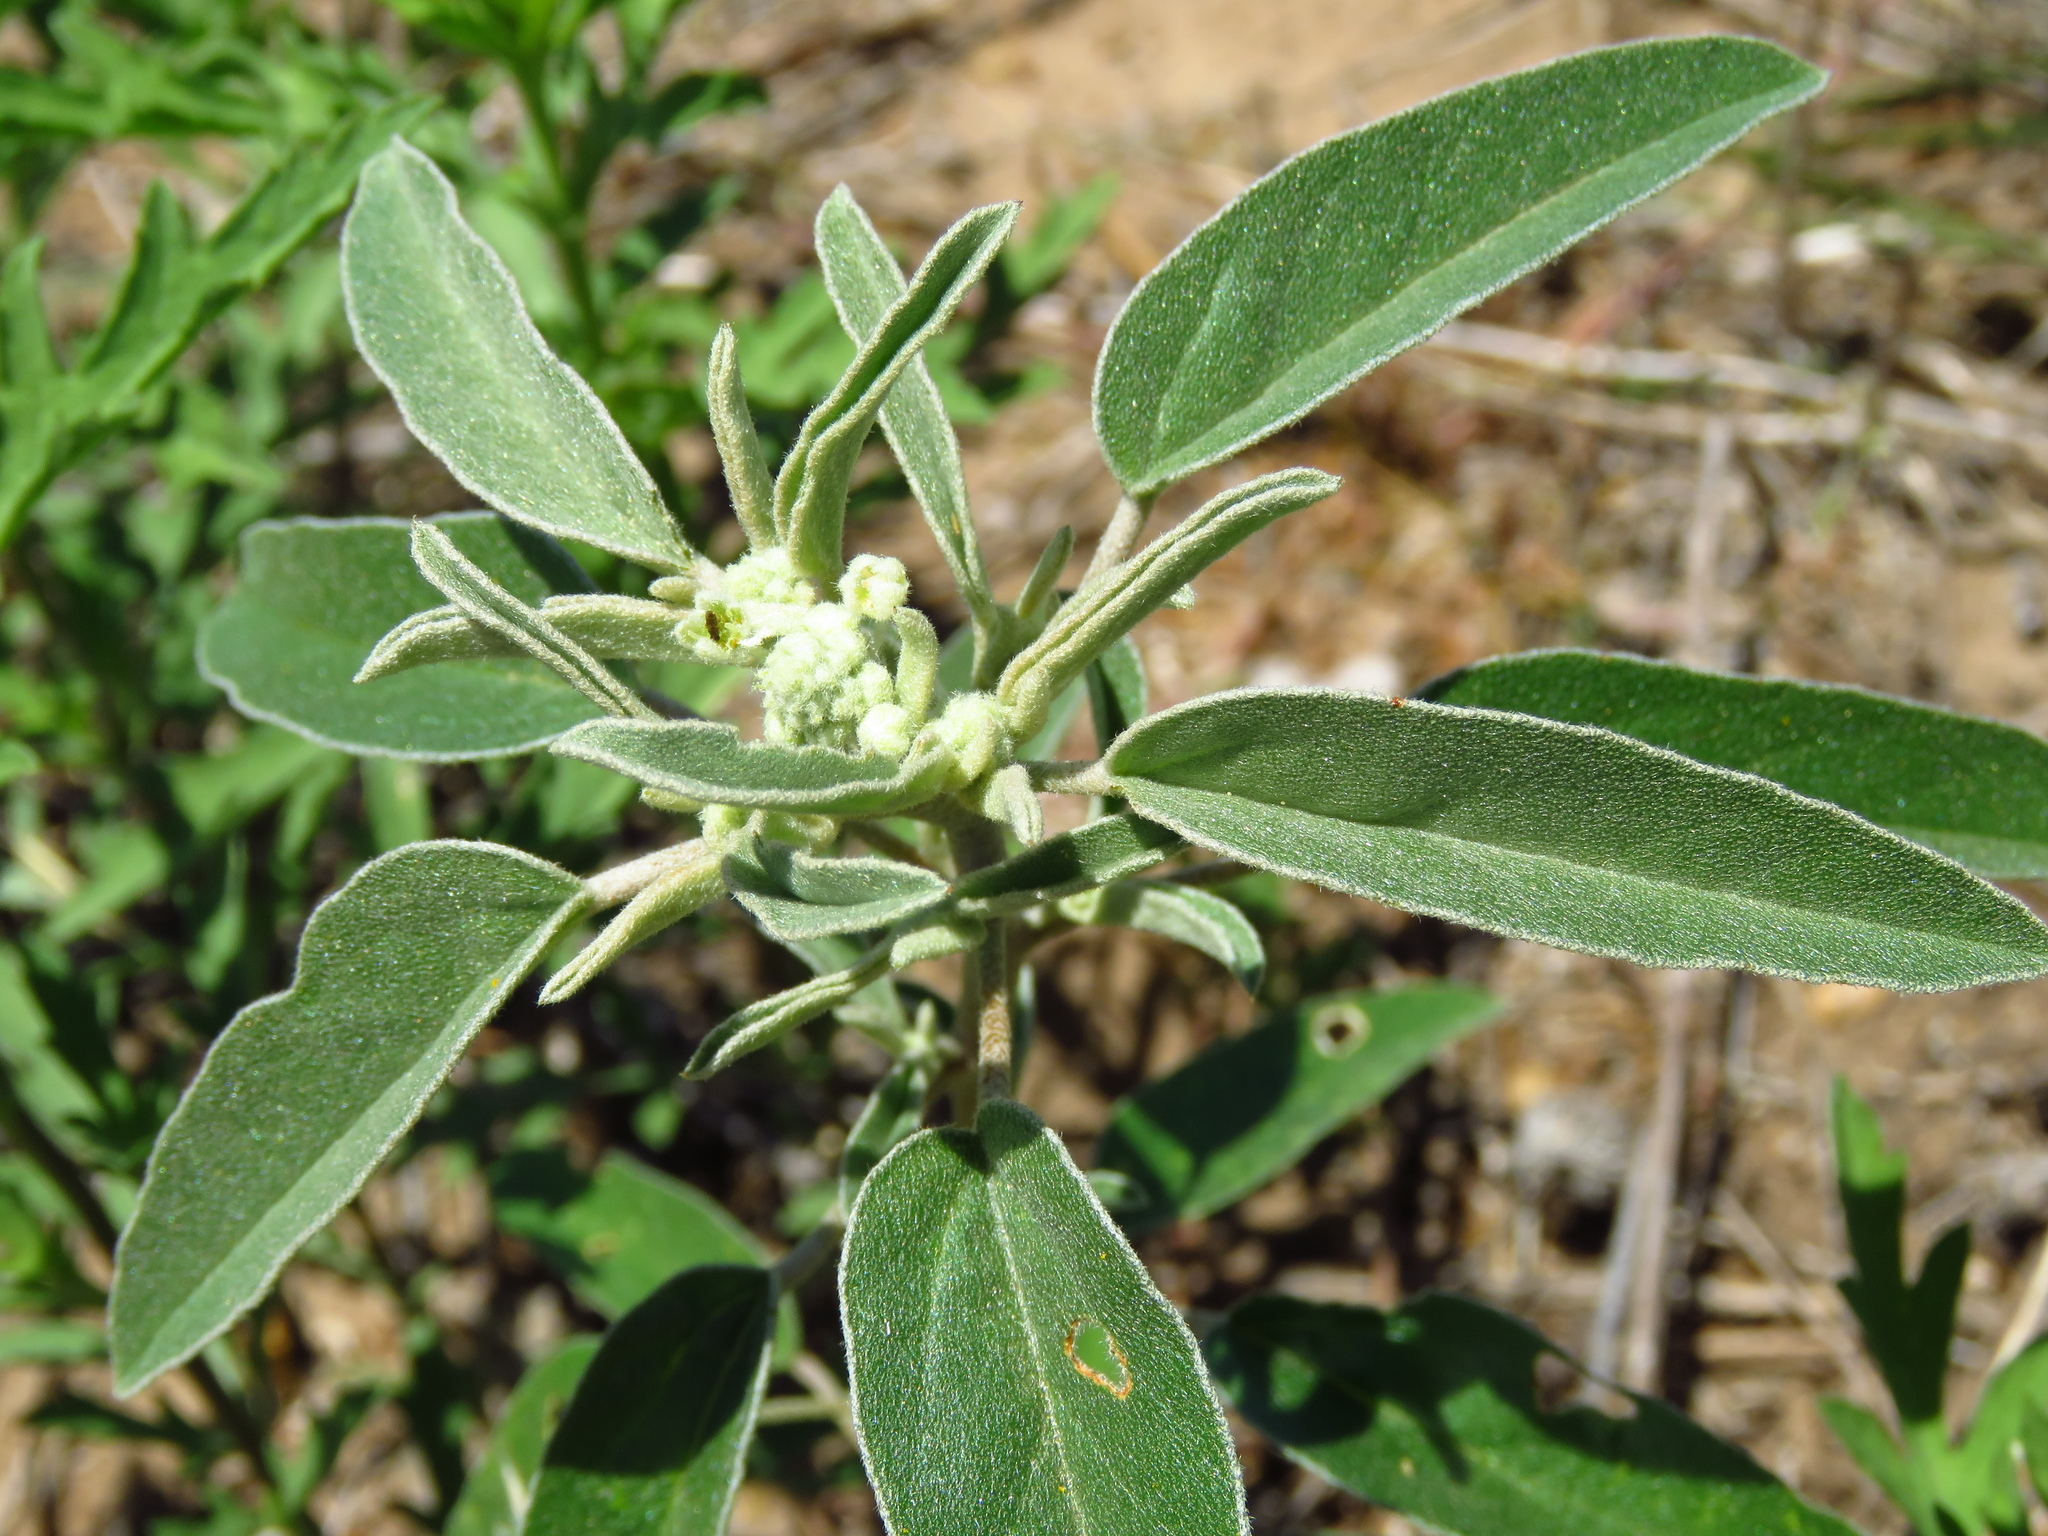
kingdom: Plantae
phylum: Tracheophyta
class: Magnoliopsida
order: Malpighiales
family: Euphorbiaceae
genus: Croton
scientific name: Croton texensis
